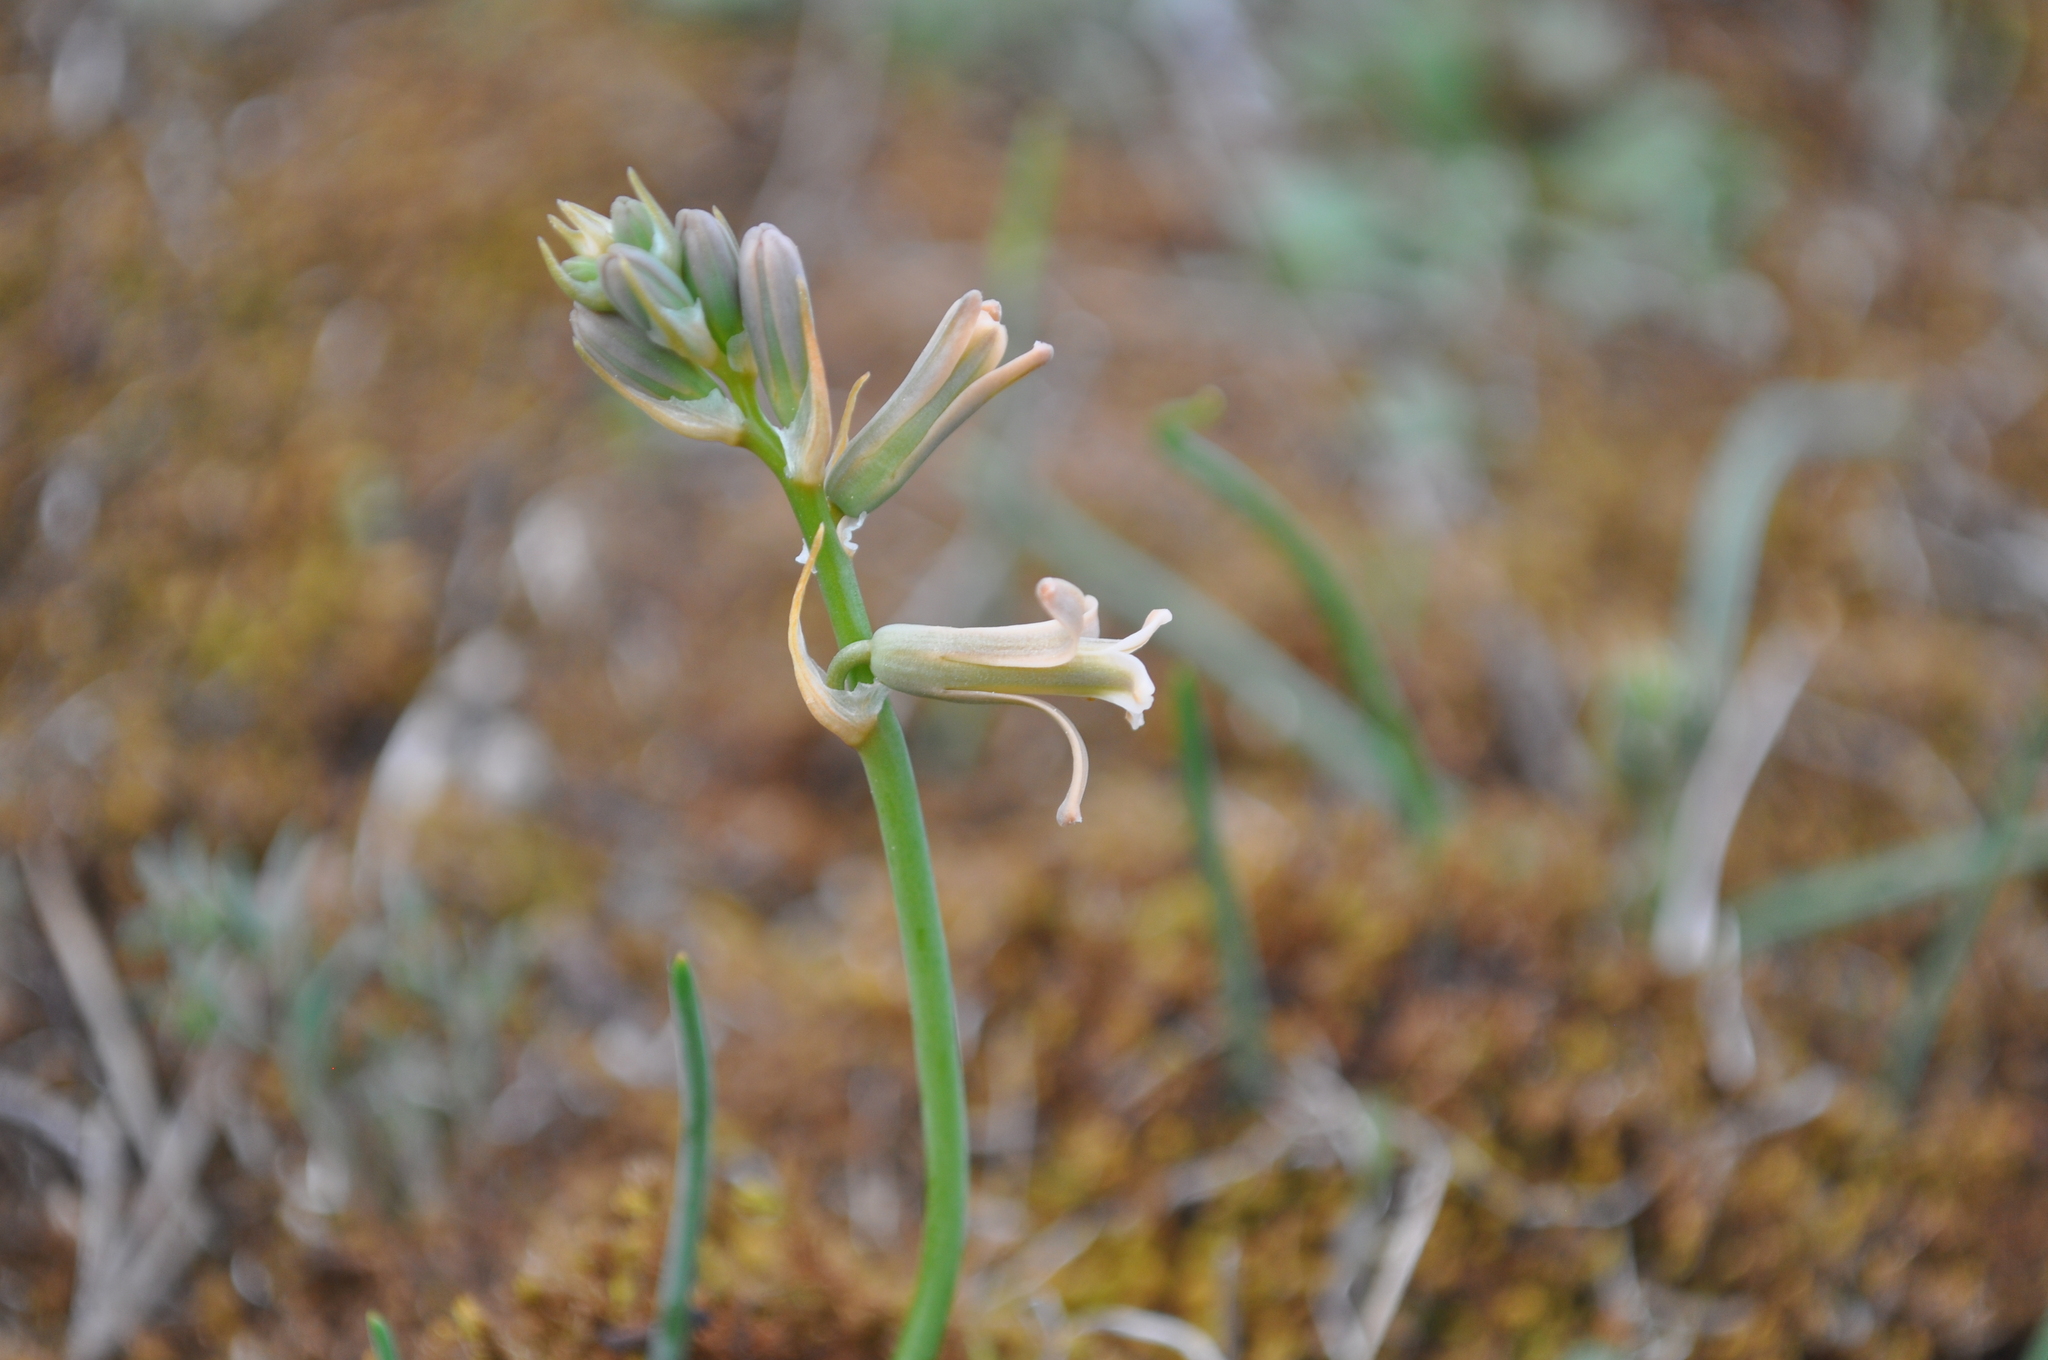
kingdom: Plantae
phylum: Tracheophyta
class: Liliopsida
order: Asparagales
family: Asparagaceae
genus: Dipcadi
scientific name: Dipcadi serotinum
